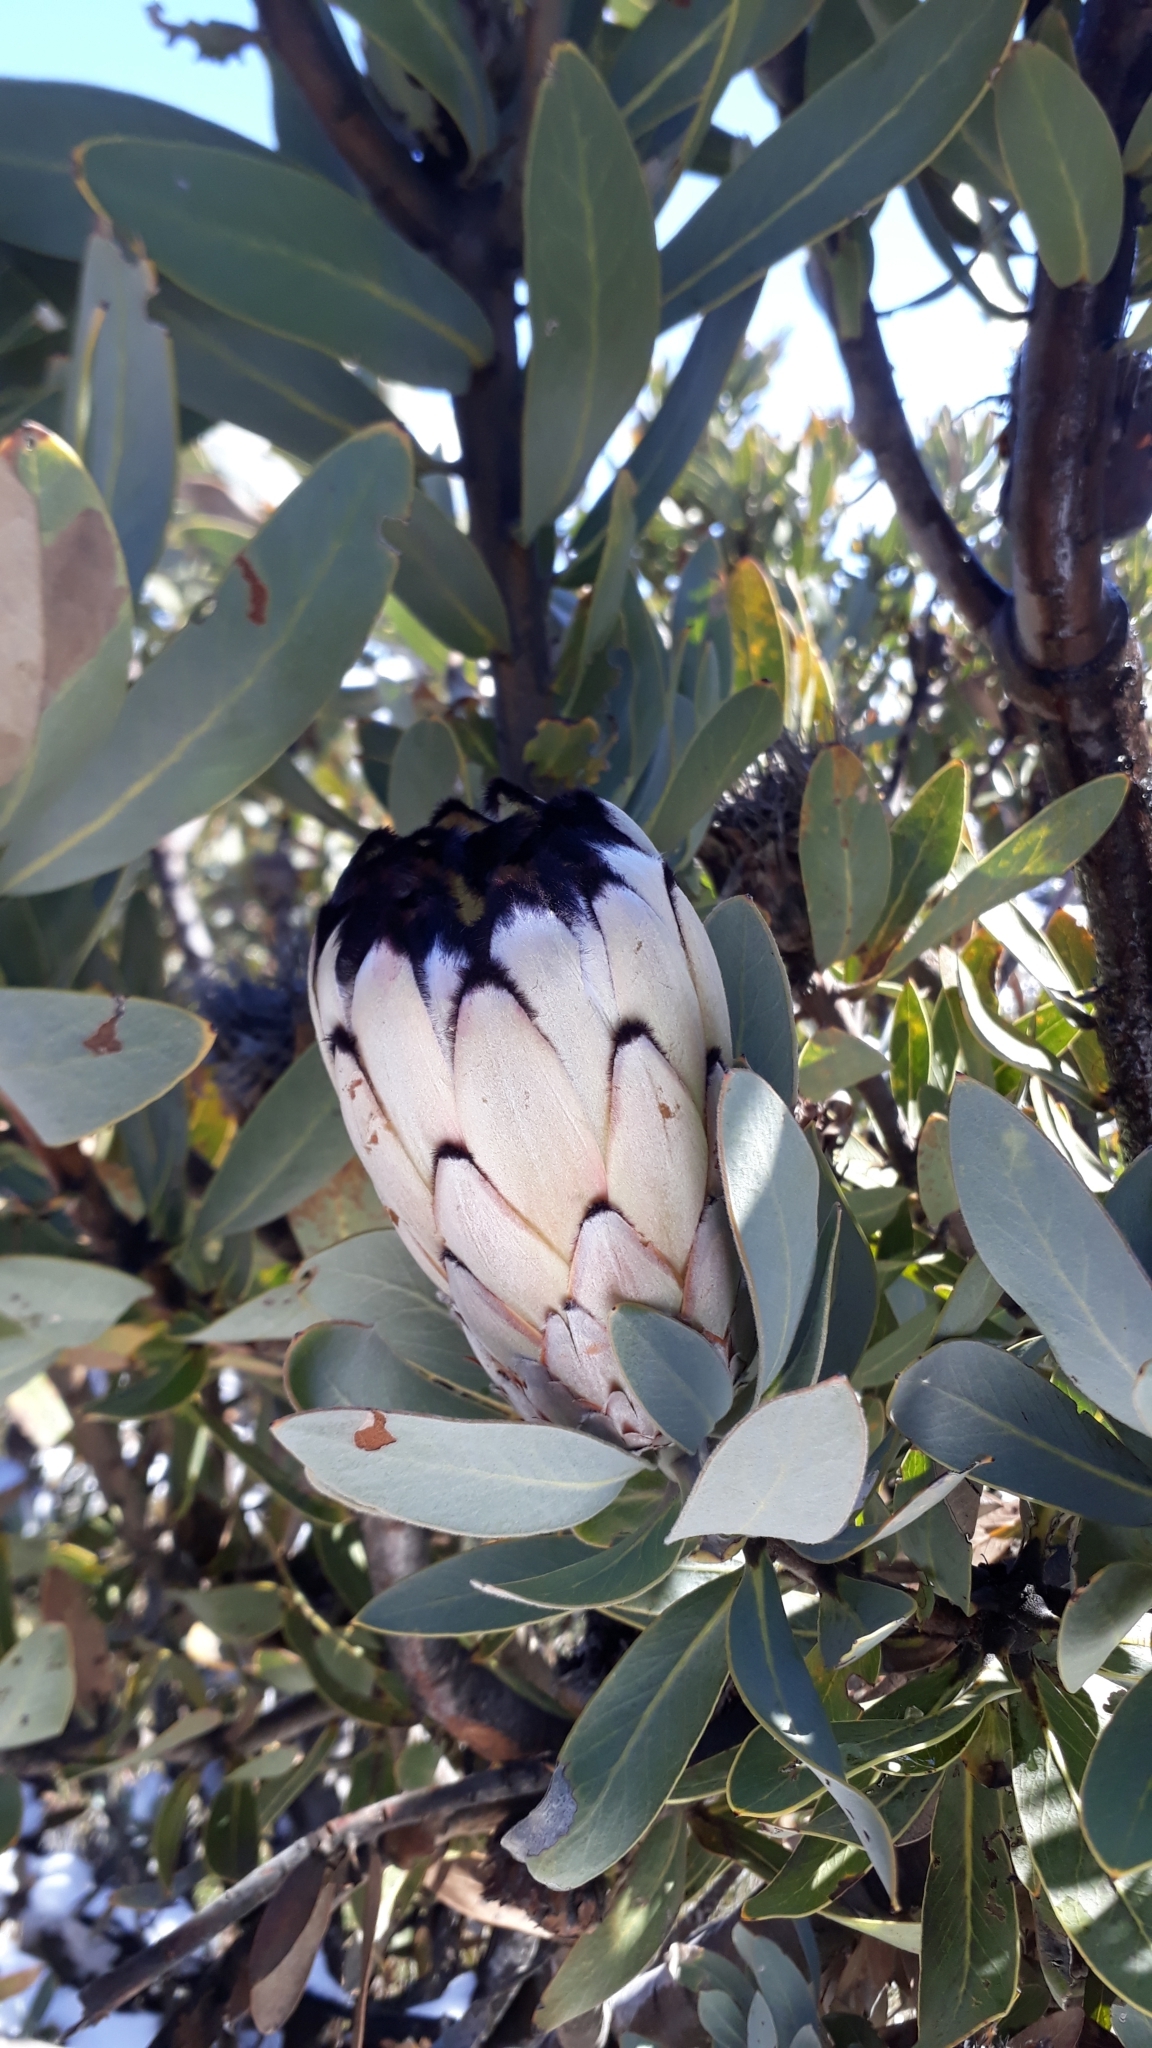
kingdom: Plantae
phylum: Tracheophyta
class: Magnoliopsida
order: Proteales
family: Proteaceae
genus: Protea
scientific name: Protea laurifolia
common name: Grey-leaf sugarbsh
